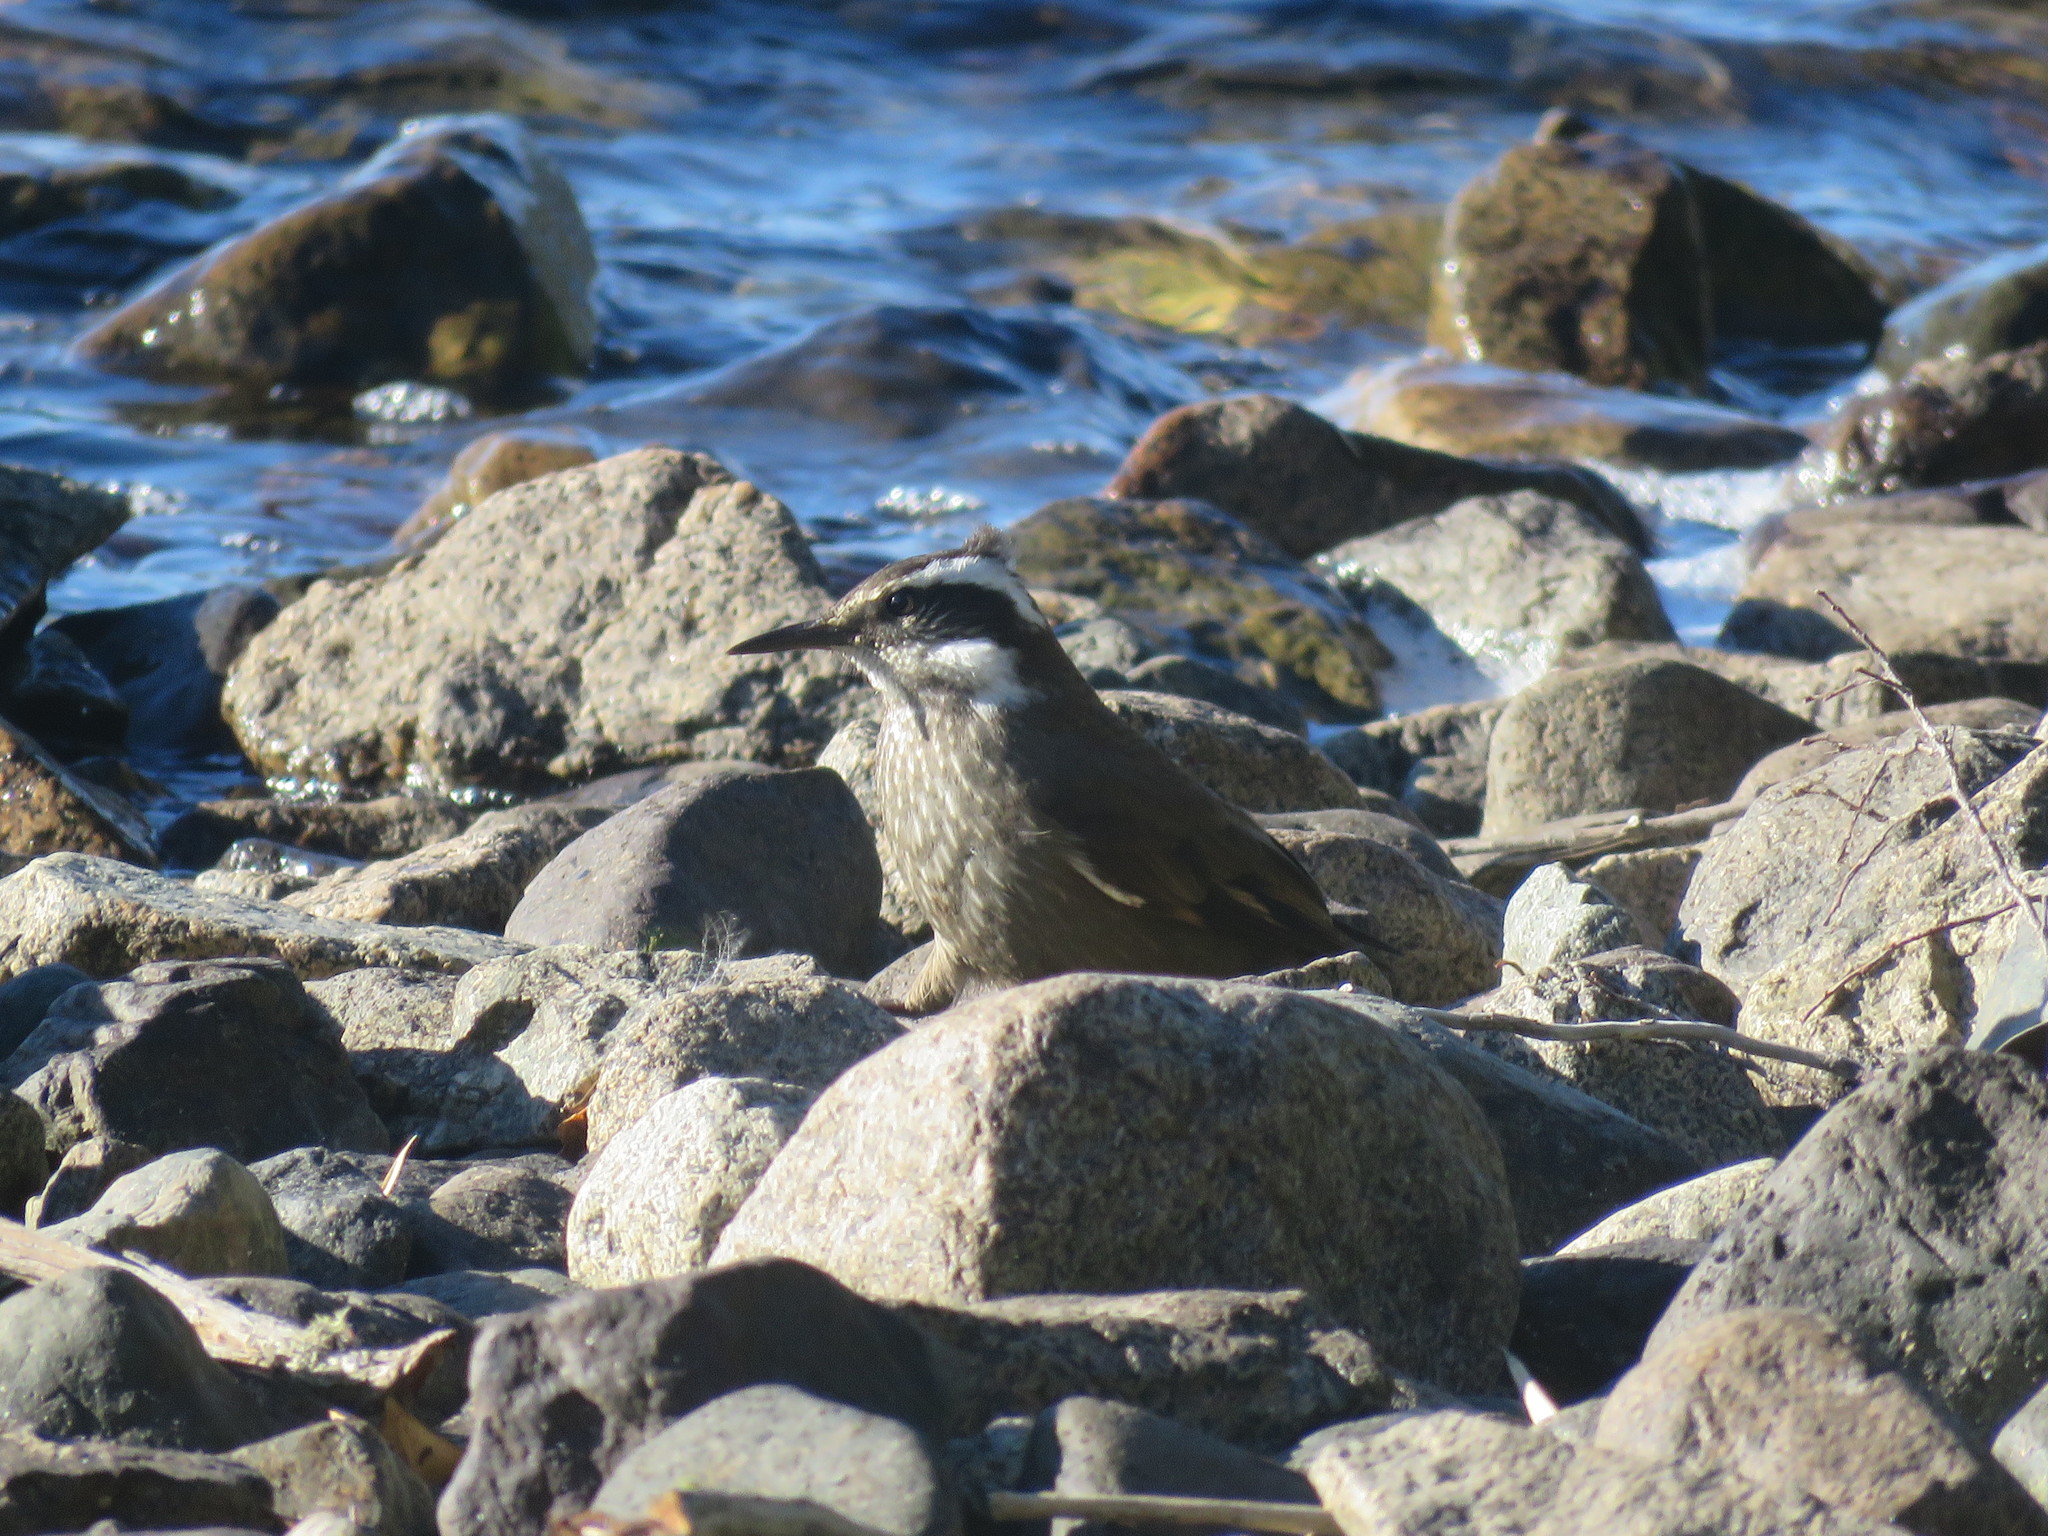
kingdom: Animalia
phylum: Chordata
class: Aves
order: Passeriformes
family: Furnariidae
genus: Cinclodes
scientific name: Cinclodes patagonicus
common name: Dark-bellied cinclodes
